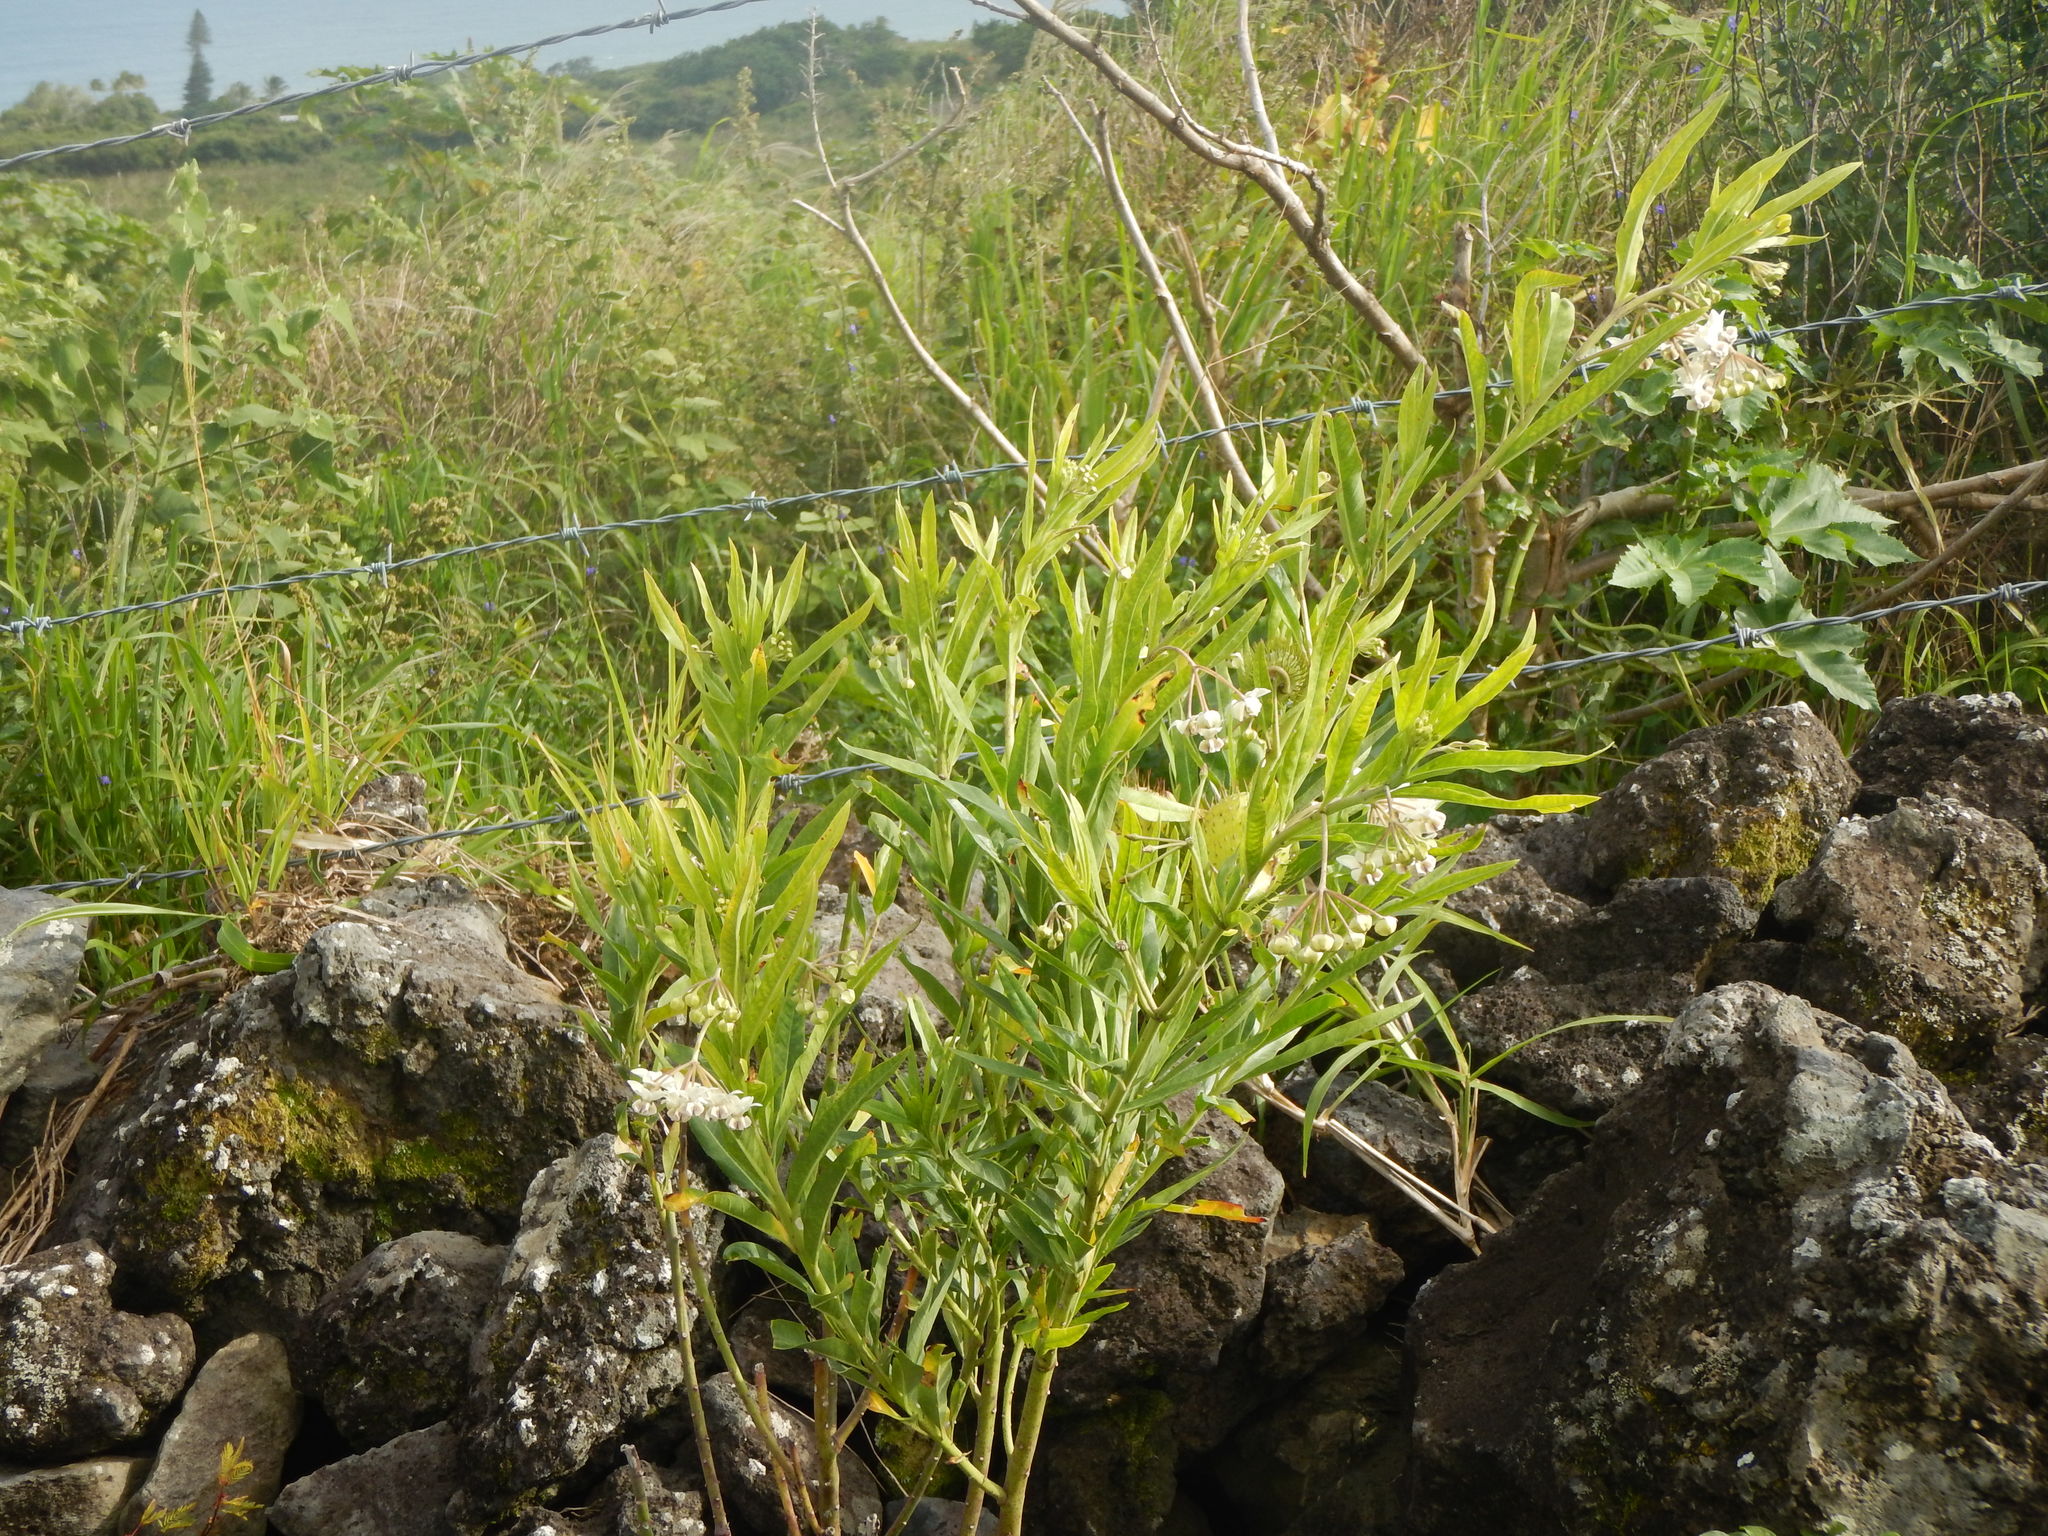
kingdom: Plantae
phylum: Tracheophyta
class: Magnoliopsida
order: Gentianales
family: Apocynaceae
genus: Gomphocarpus
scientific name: Gomphocarpus physocarpus
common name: Balloon cotton bush
